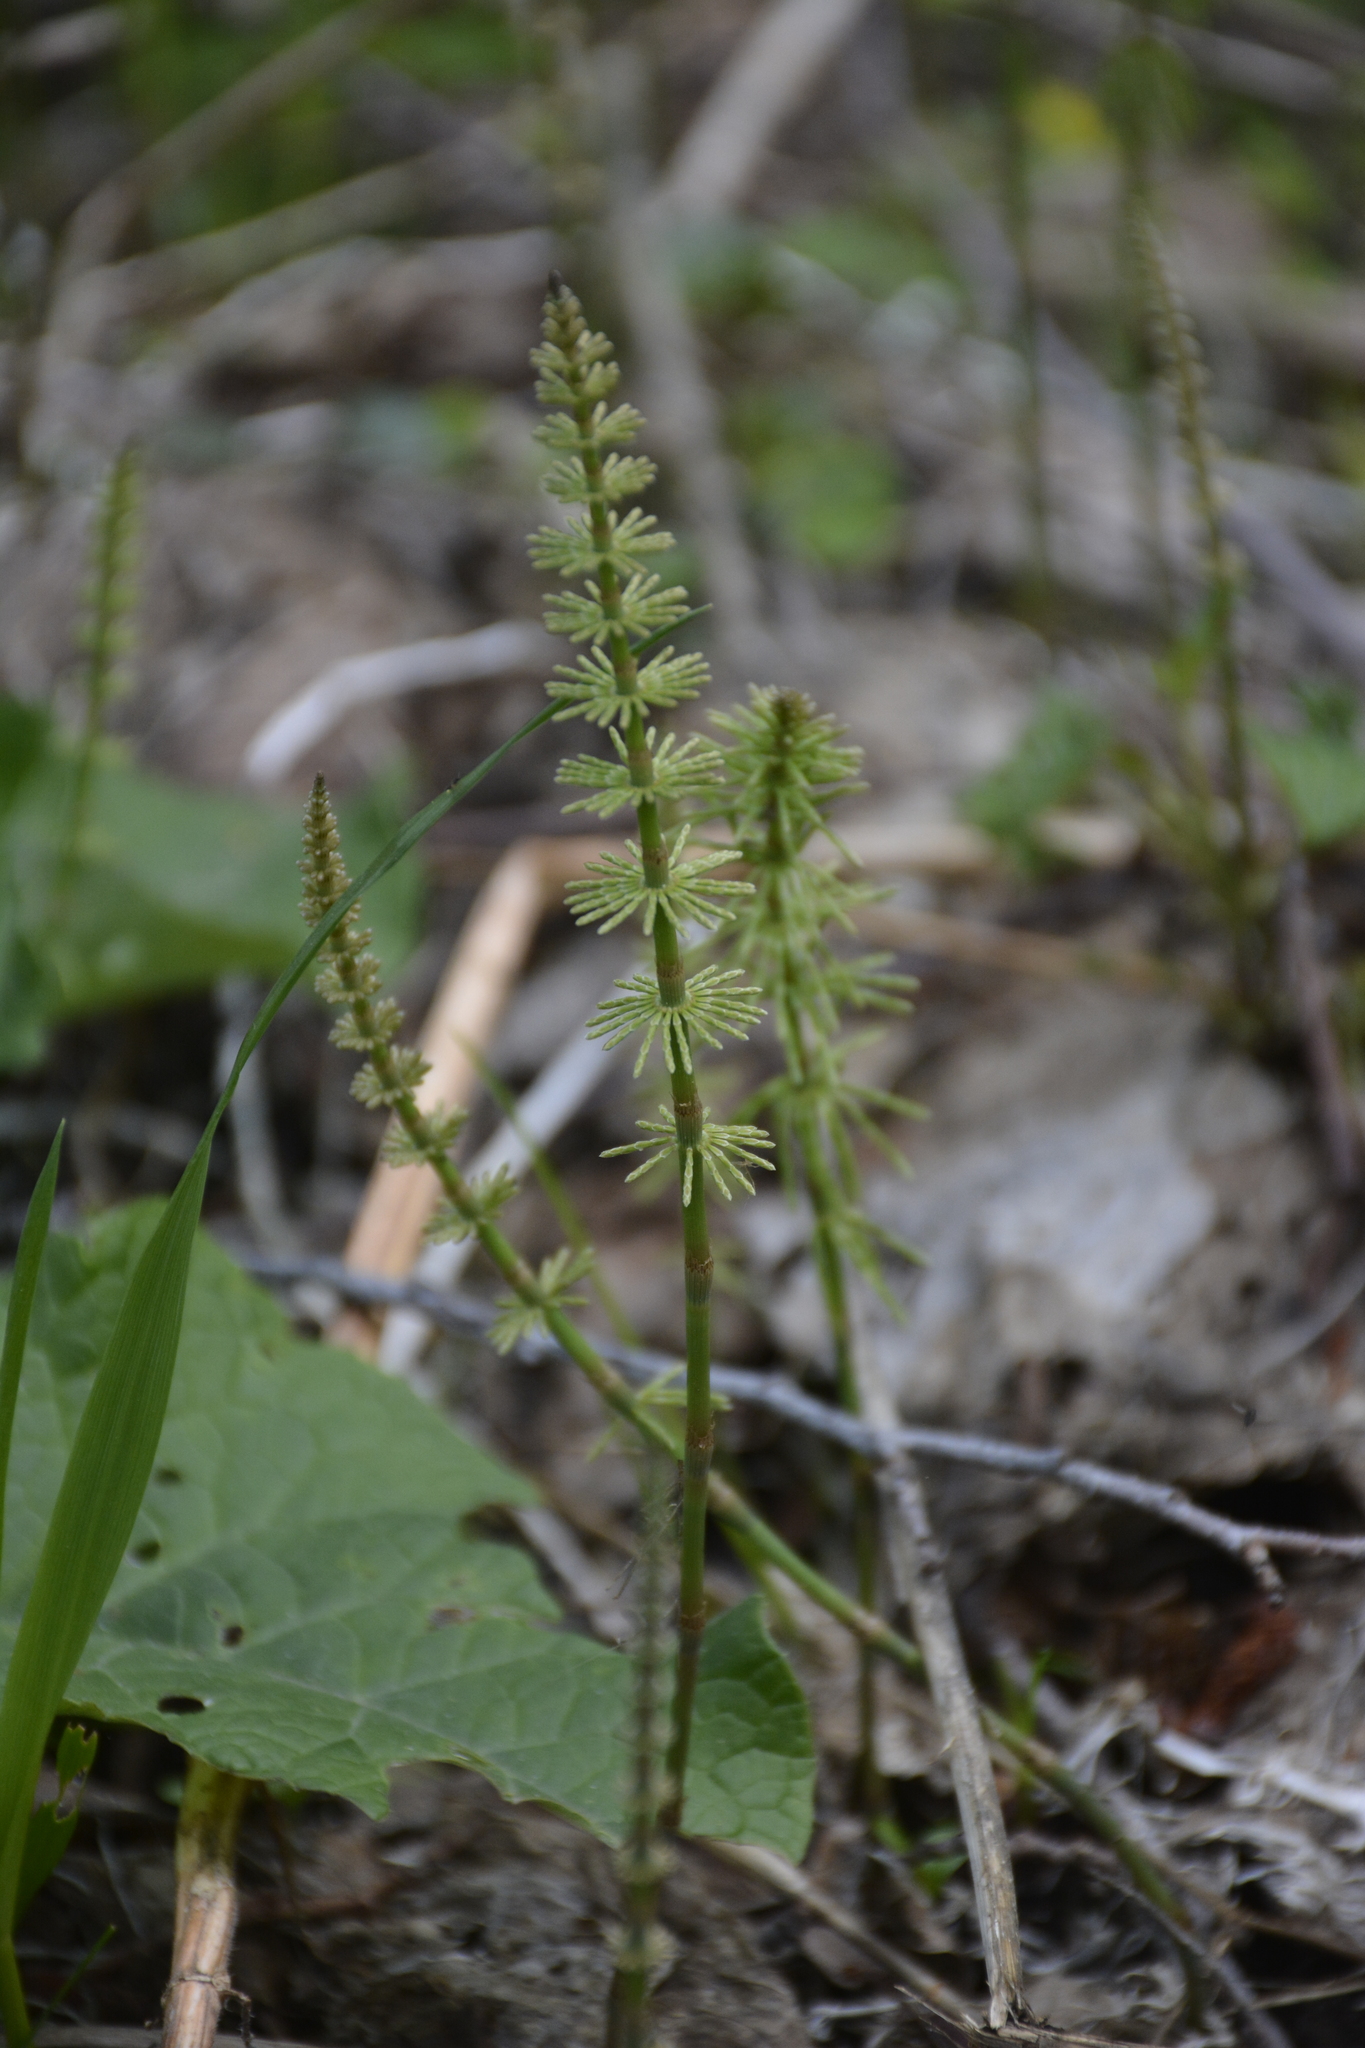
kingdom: Plantae
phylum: Tracheophyta
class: Polypodiopsida
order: Equisetales
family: Equisetaceae
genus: Equisetum
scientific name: Equisetum pratense
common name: Meadow horsetail
